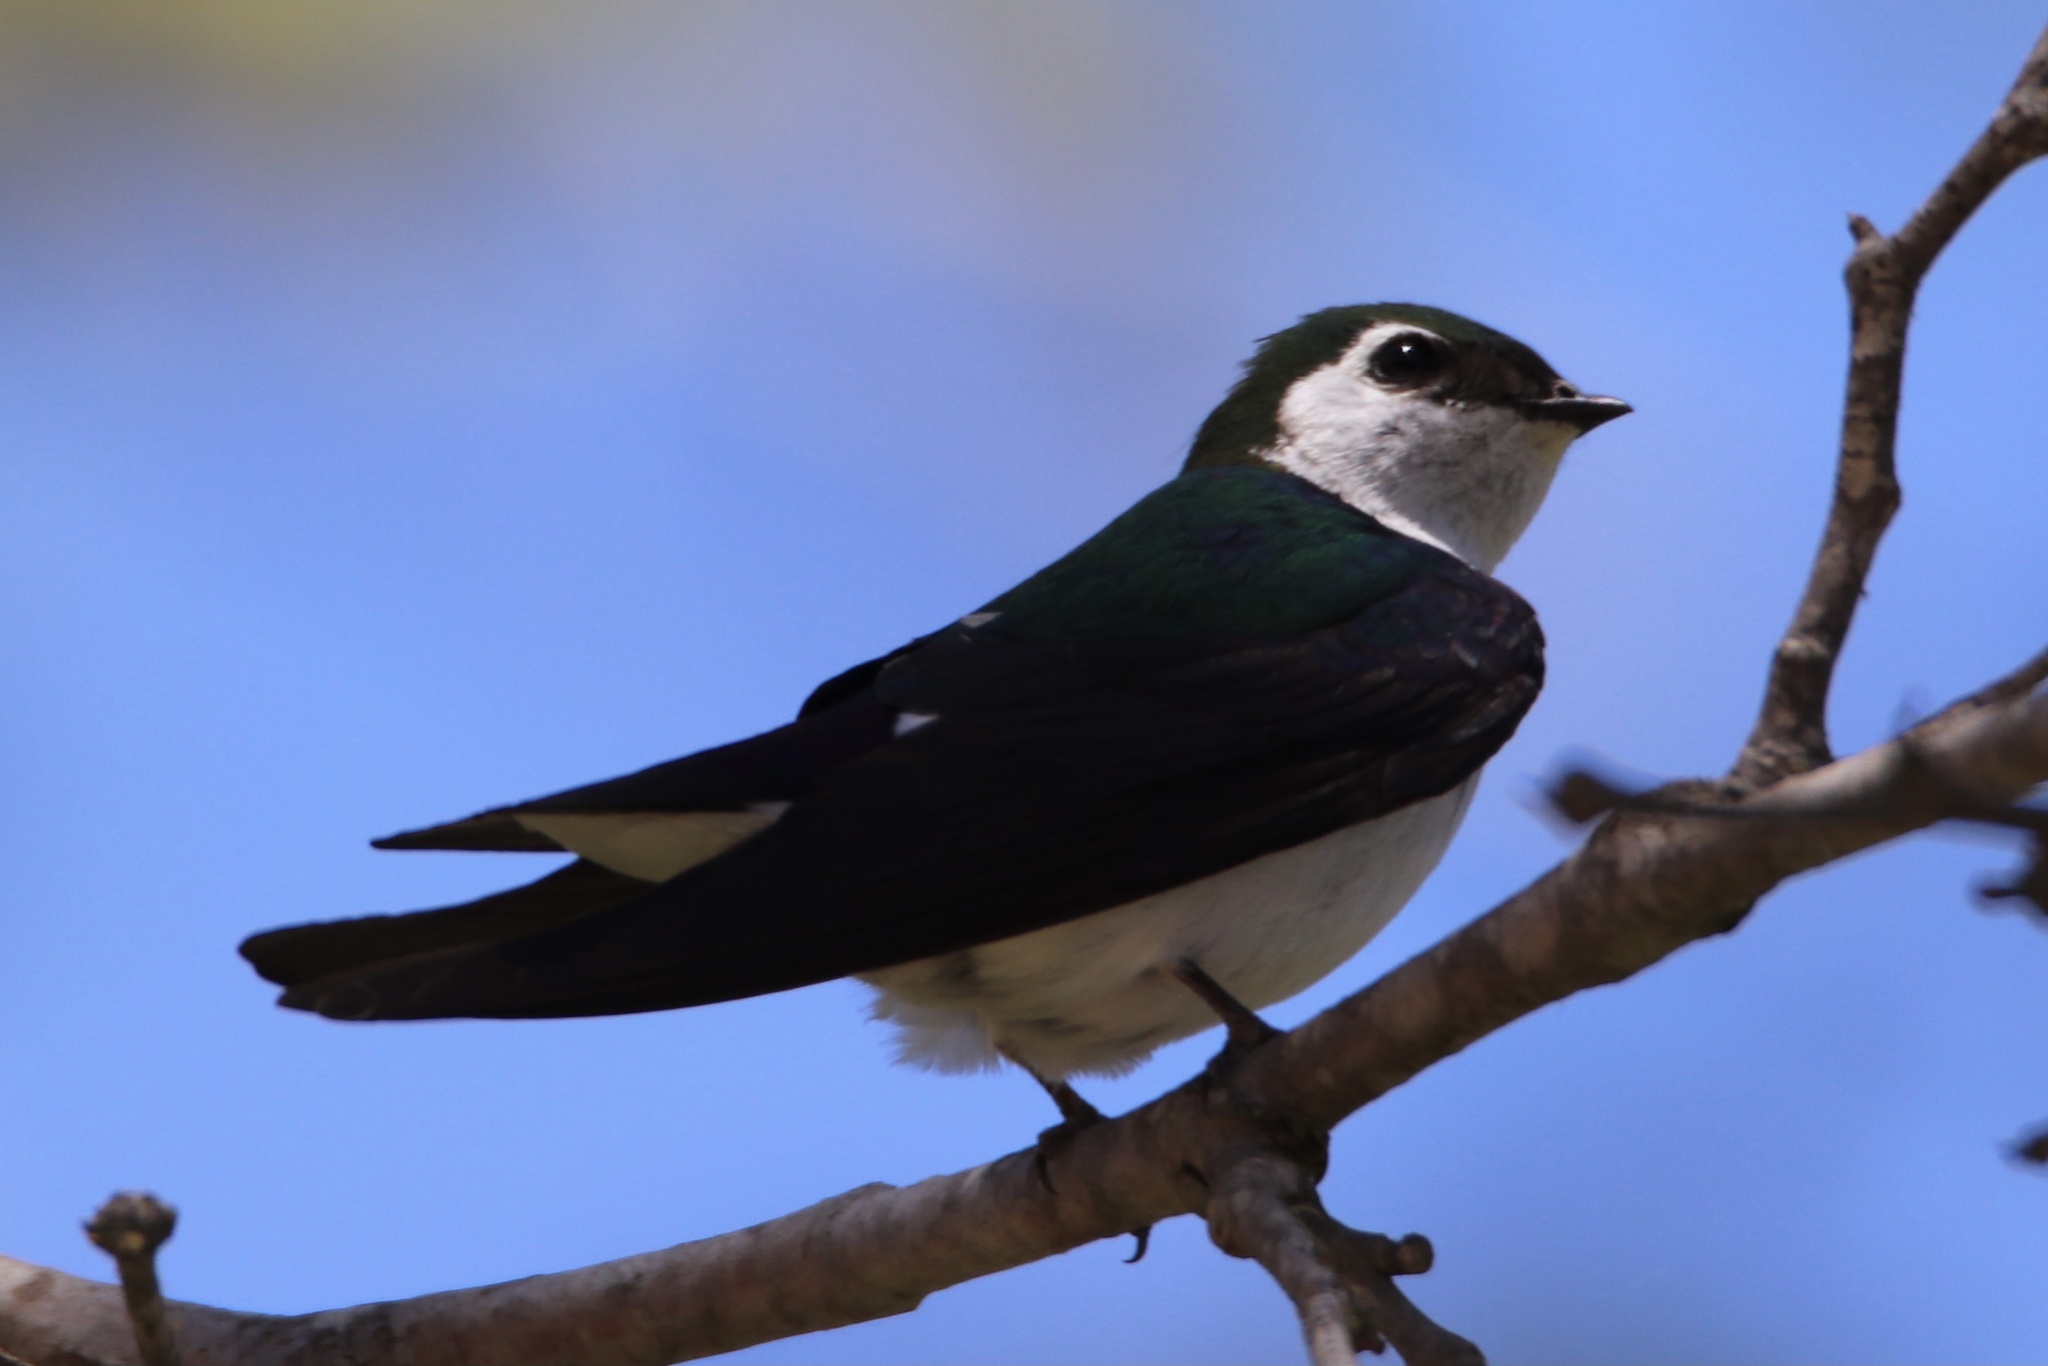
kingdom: Animalia
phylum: Chordata
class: Aves
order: Passeriformes
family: Hirundinidae
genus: Tachycineta
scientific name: Tachycineta thalassina
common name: Violet-green swallow
